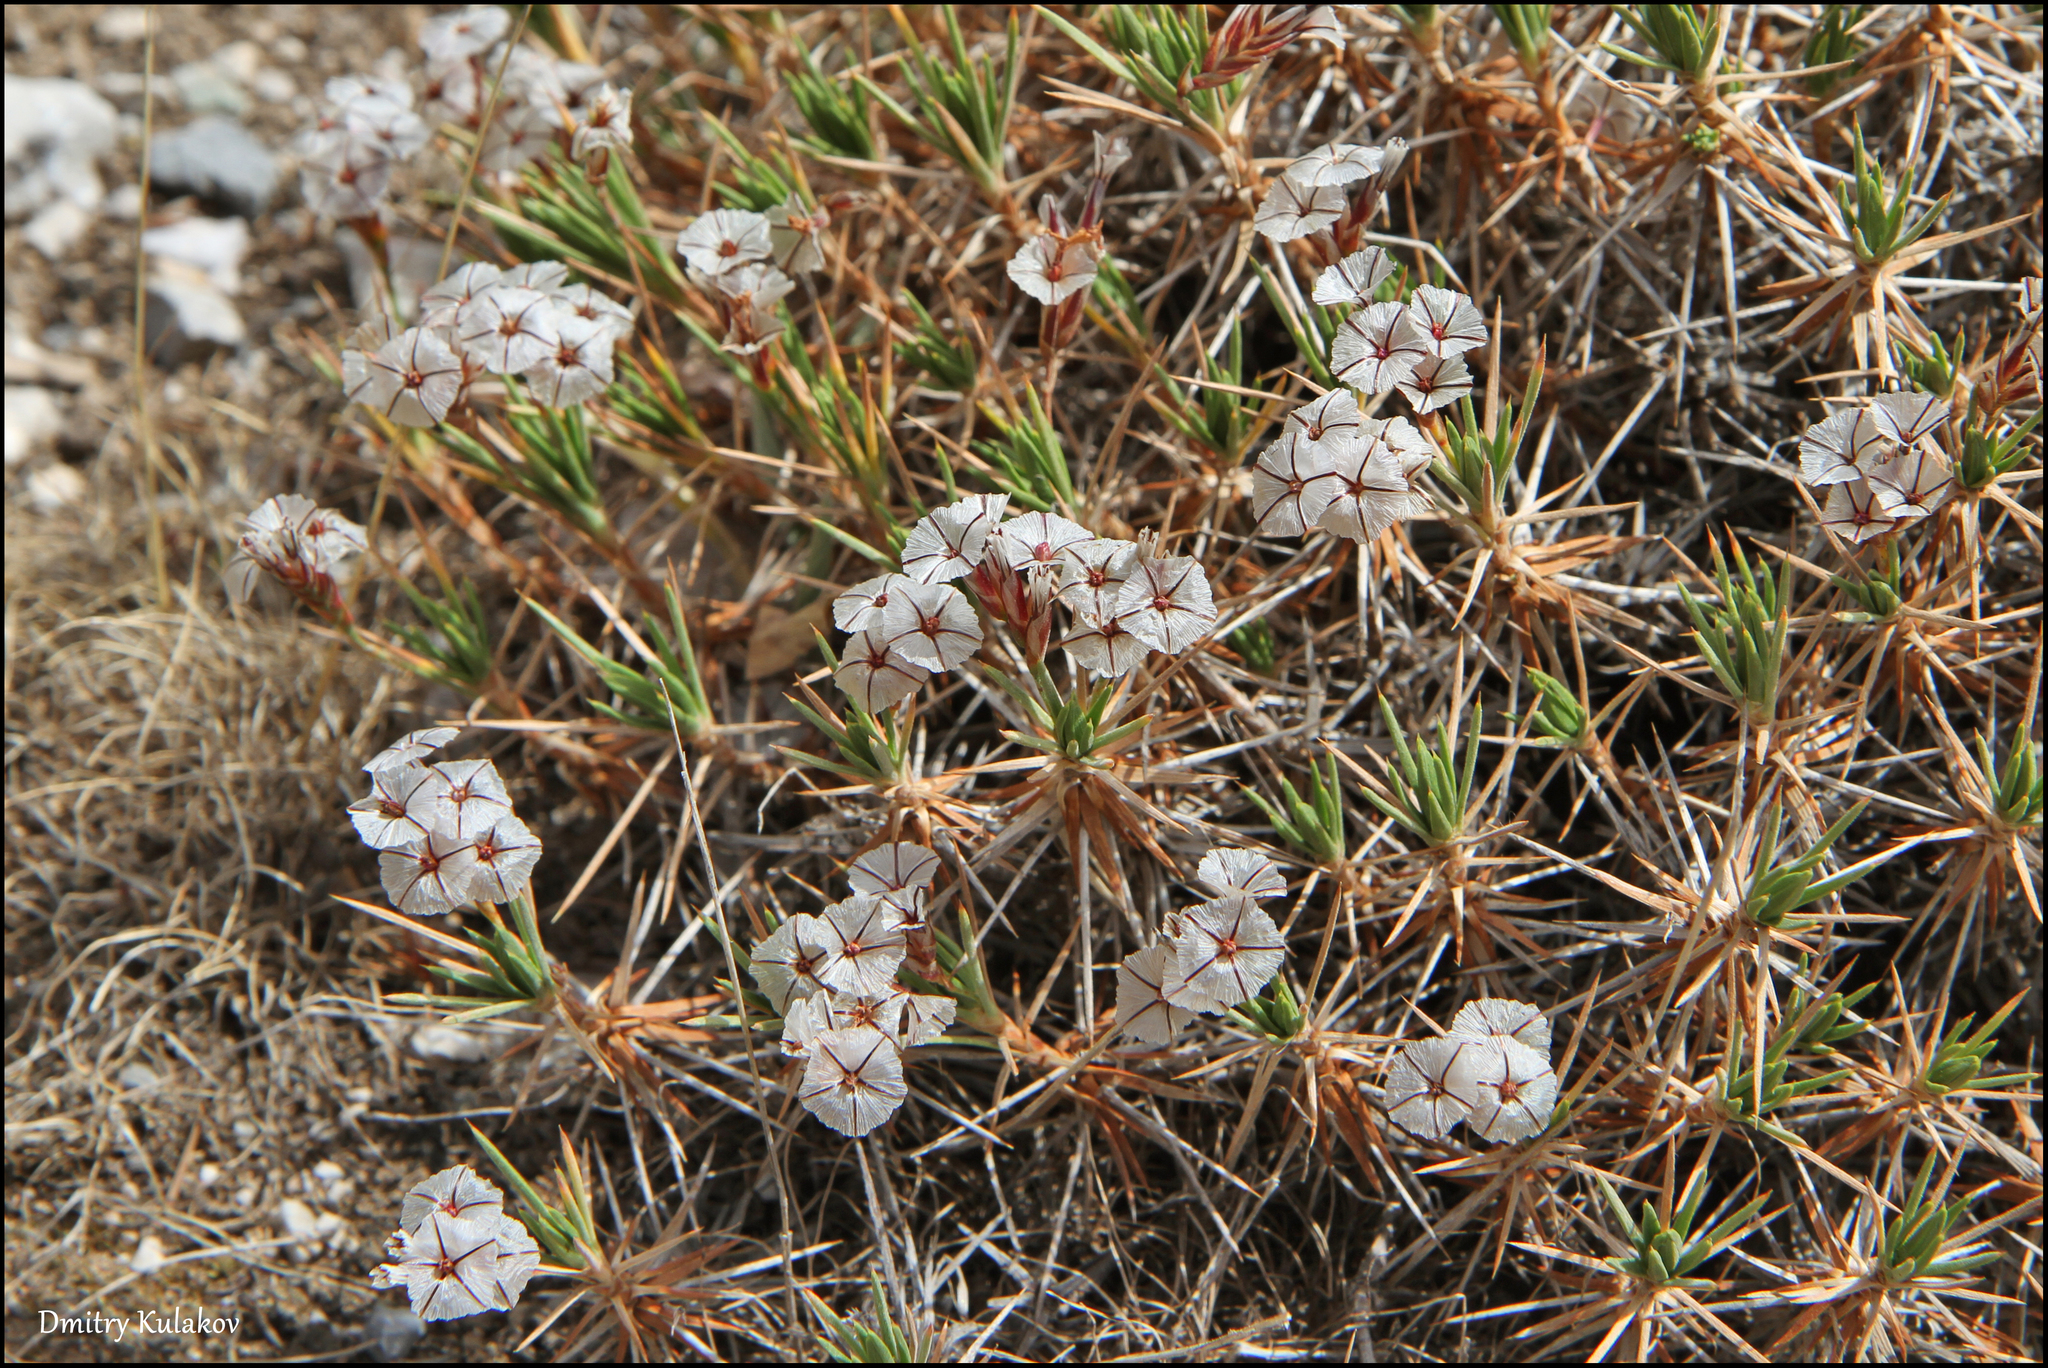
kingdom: Plantae
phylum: Tracheophyta
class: Magnoliopsida
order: Caryophyllales
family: Plumbaginaceae
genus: Acantholimon
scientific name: Acantholimon velutinum
